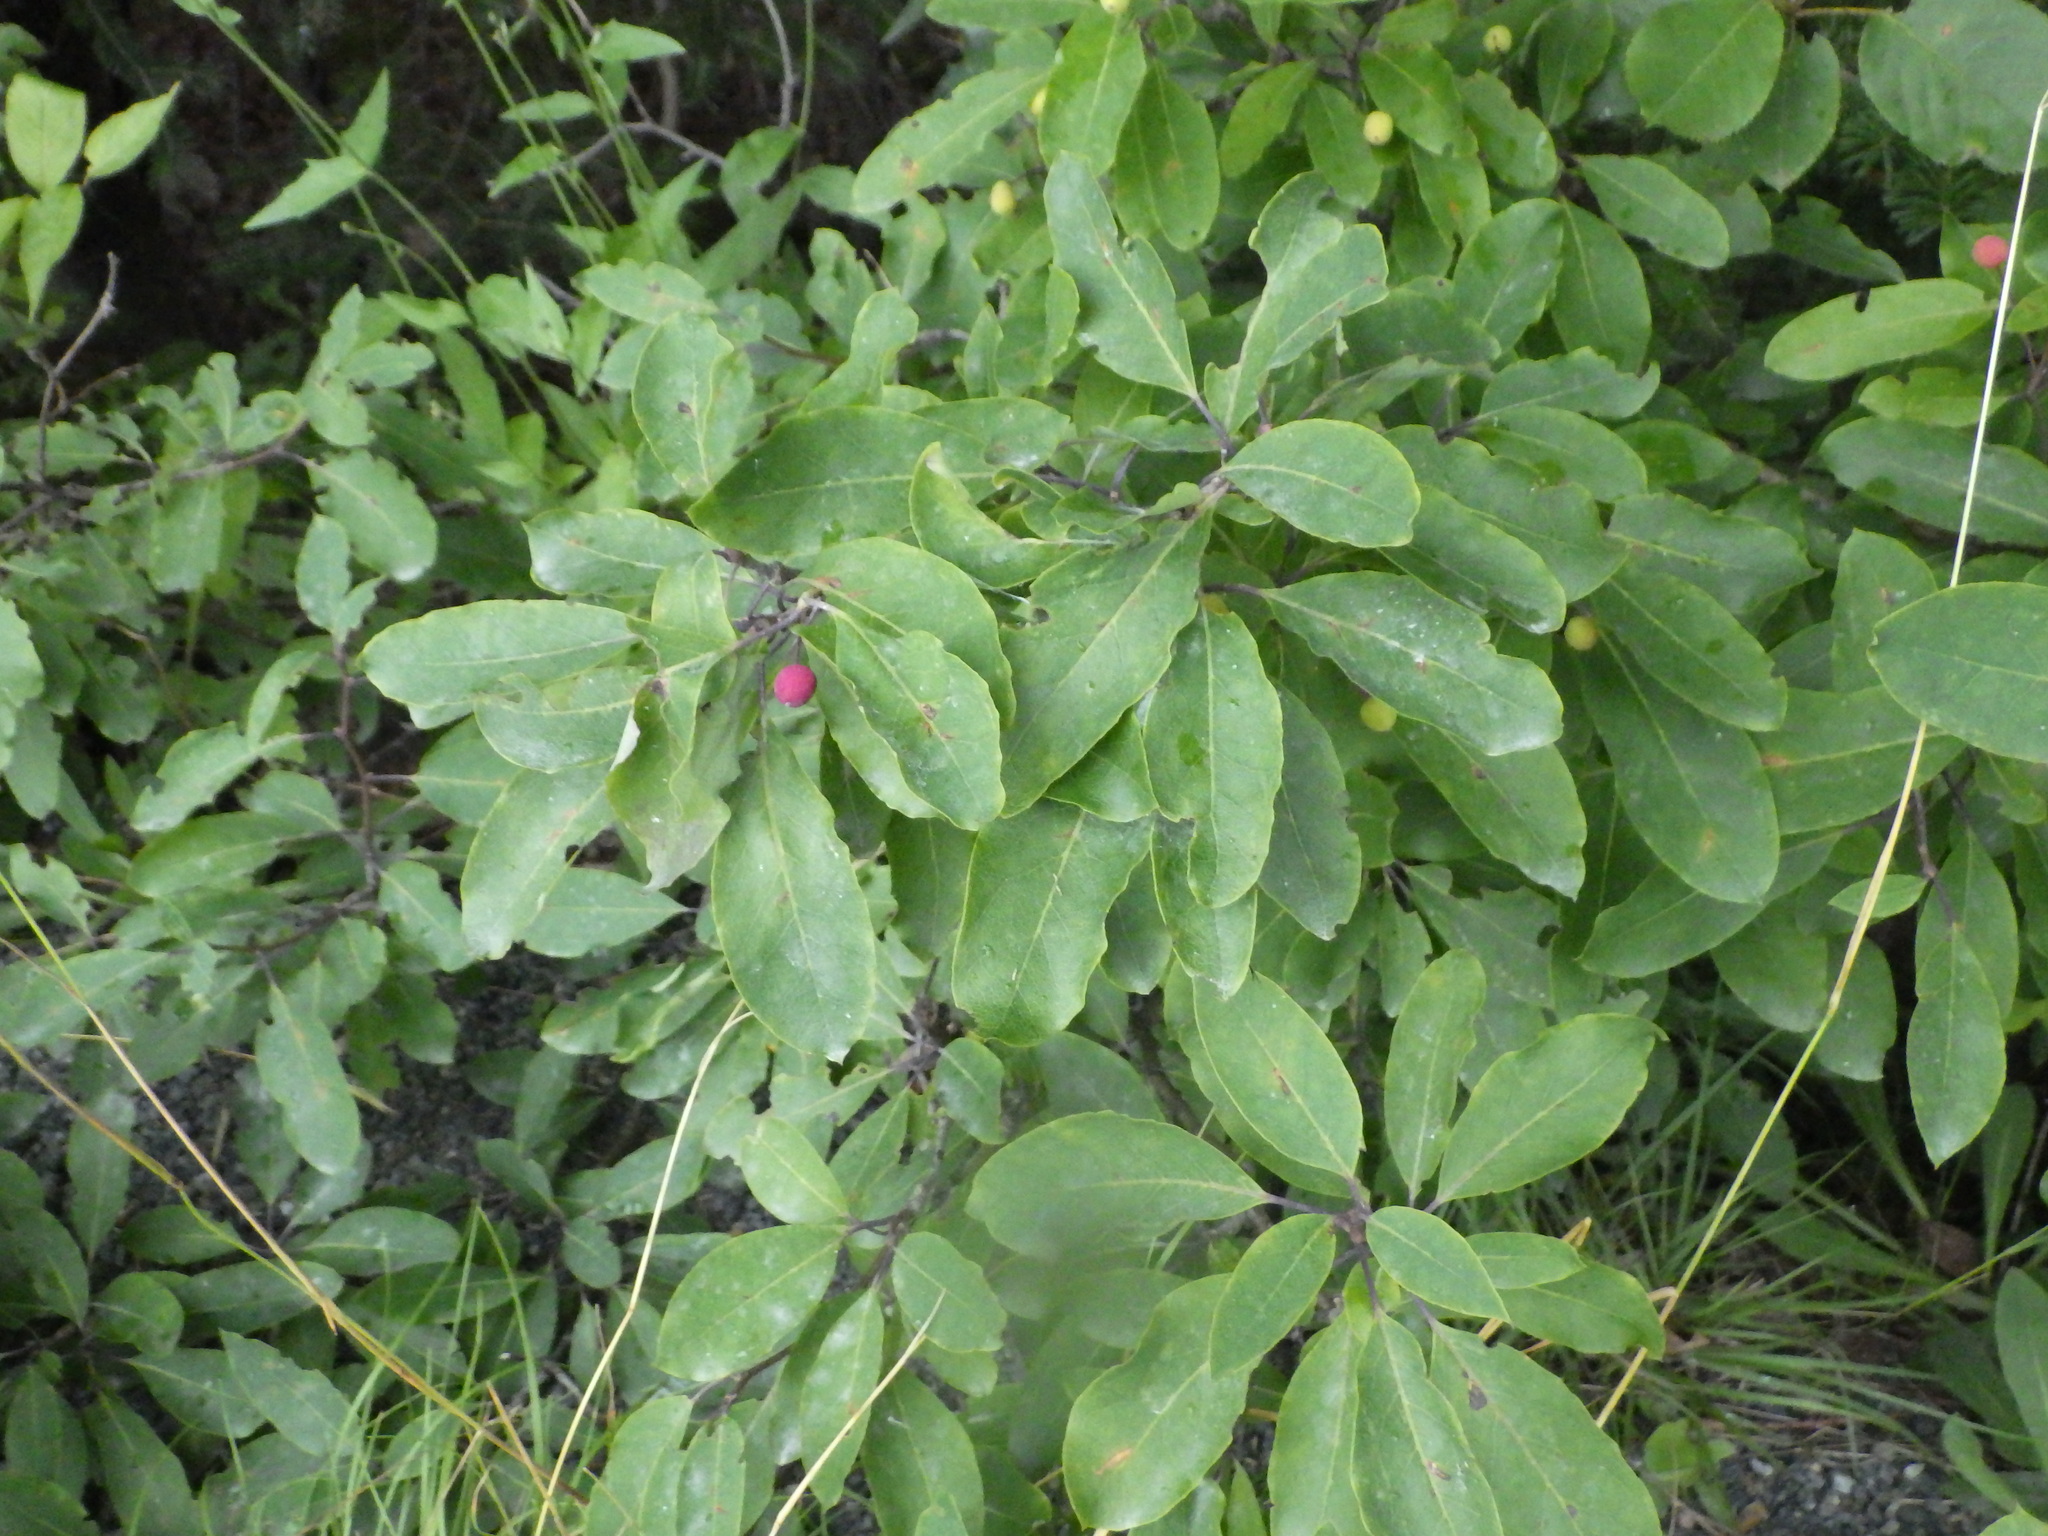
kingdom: Plantae
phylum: Tracheophyta
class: Magnoliopsida
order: Aquifoliales
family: Aquifoliaceae
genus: Ilex
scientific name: Ilex mucronata
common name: Catberry
